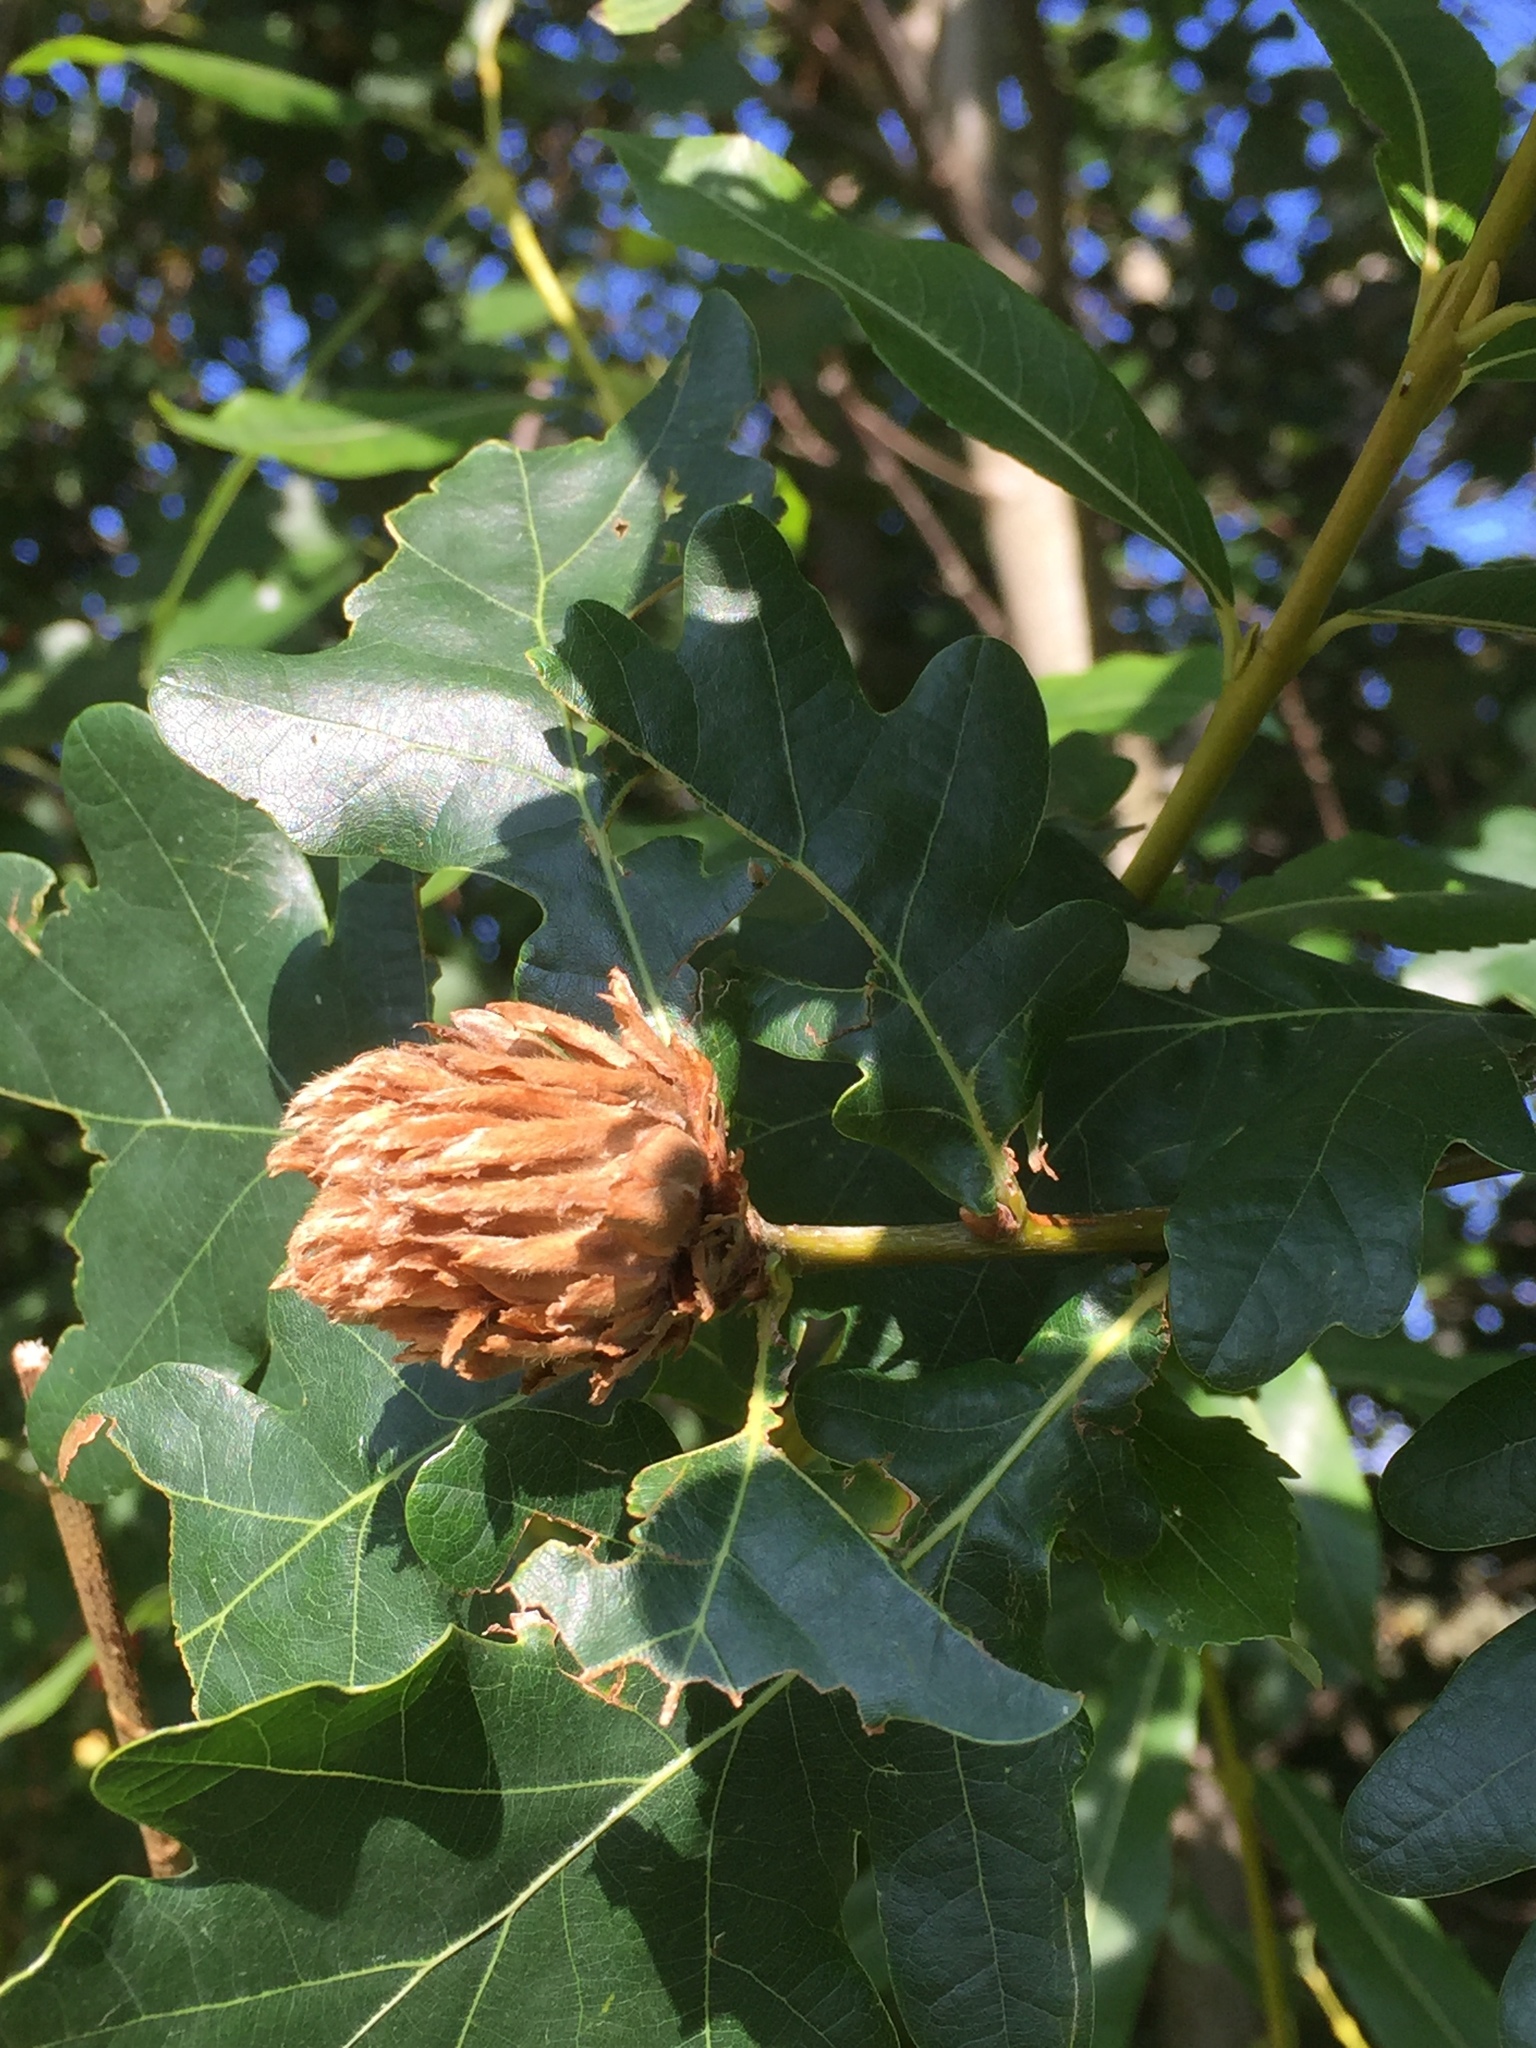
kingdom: Animalia
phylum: Arthropoda
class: Insecta
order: Hymenoptera
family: Cynipidae
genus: Andricus
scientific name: Andricus foecundatrix
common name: Artichoke gall
